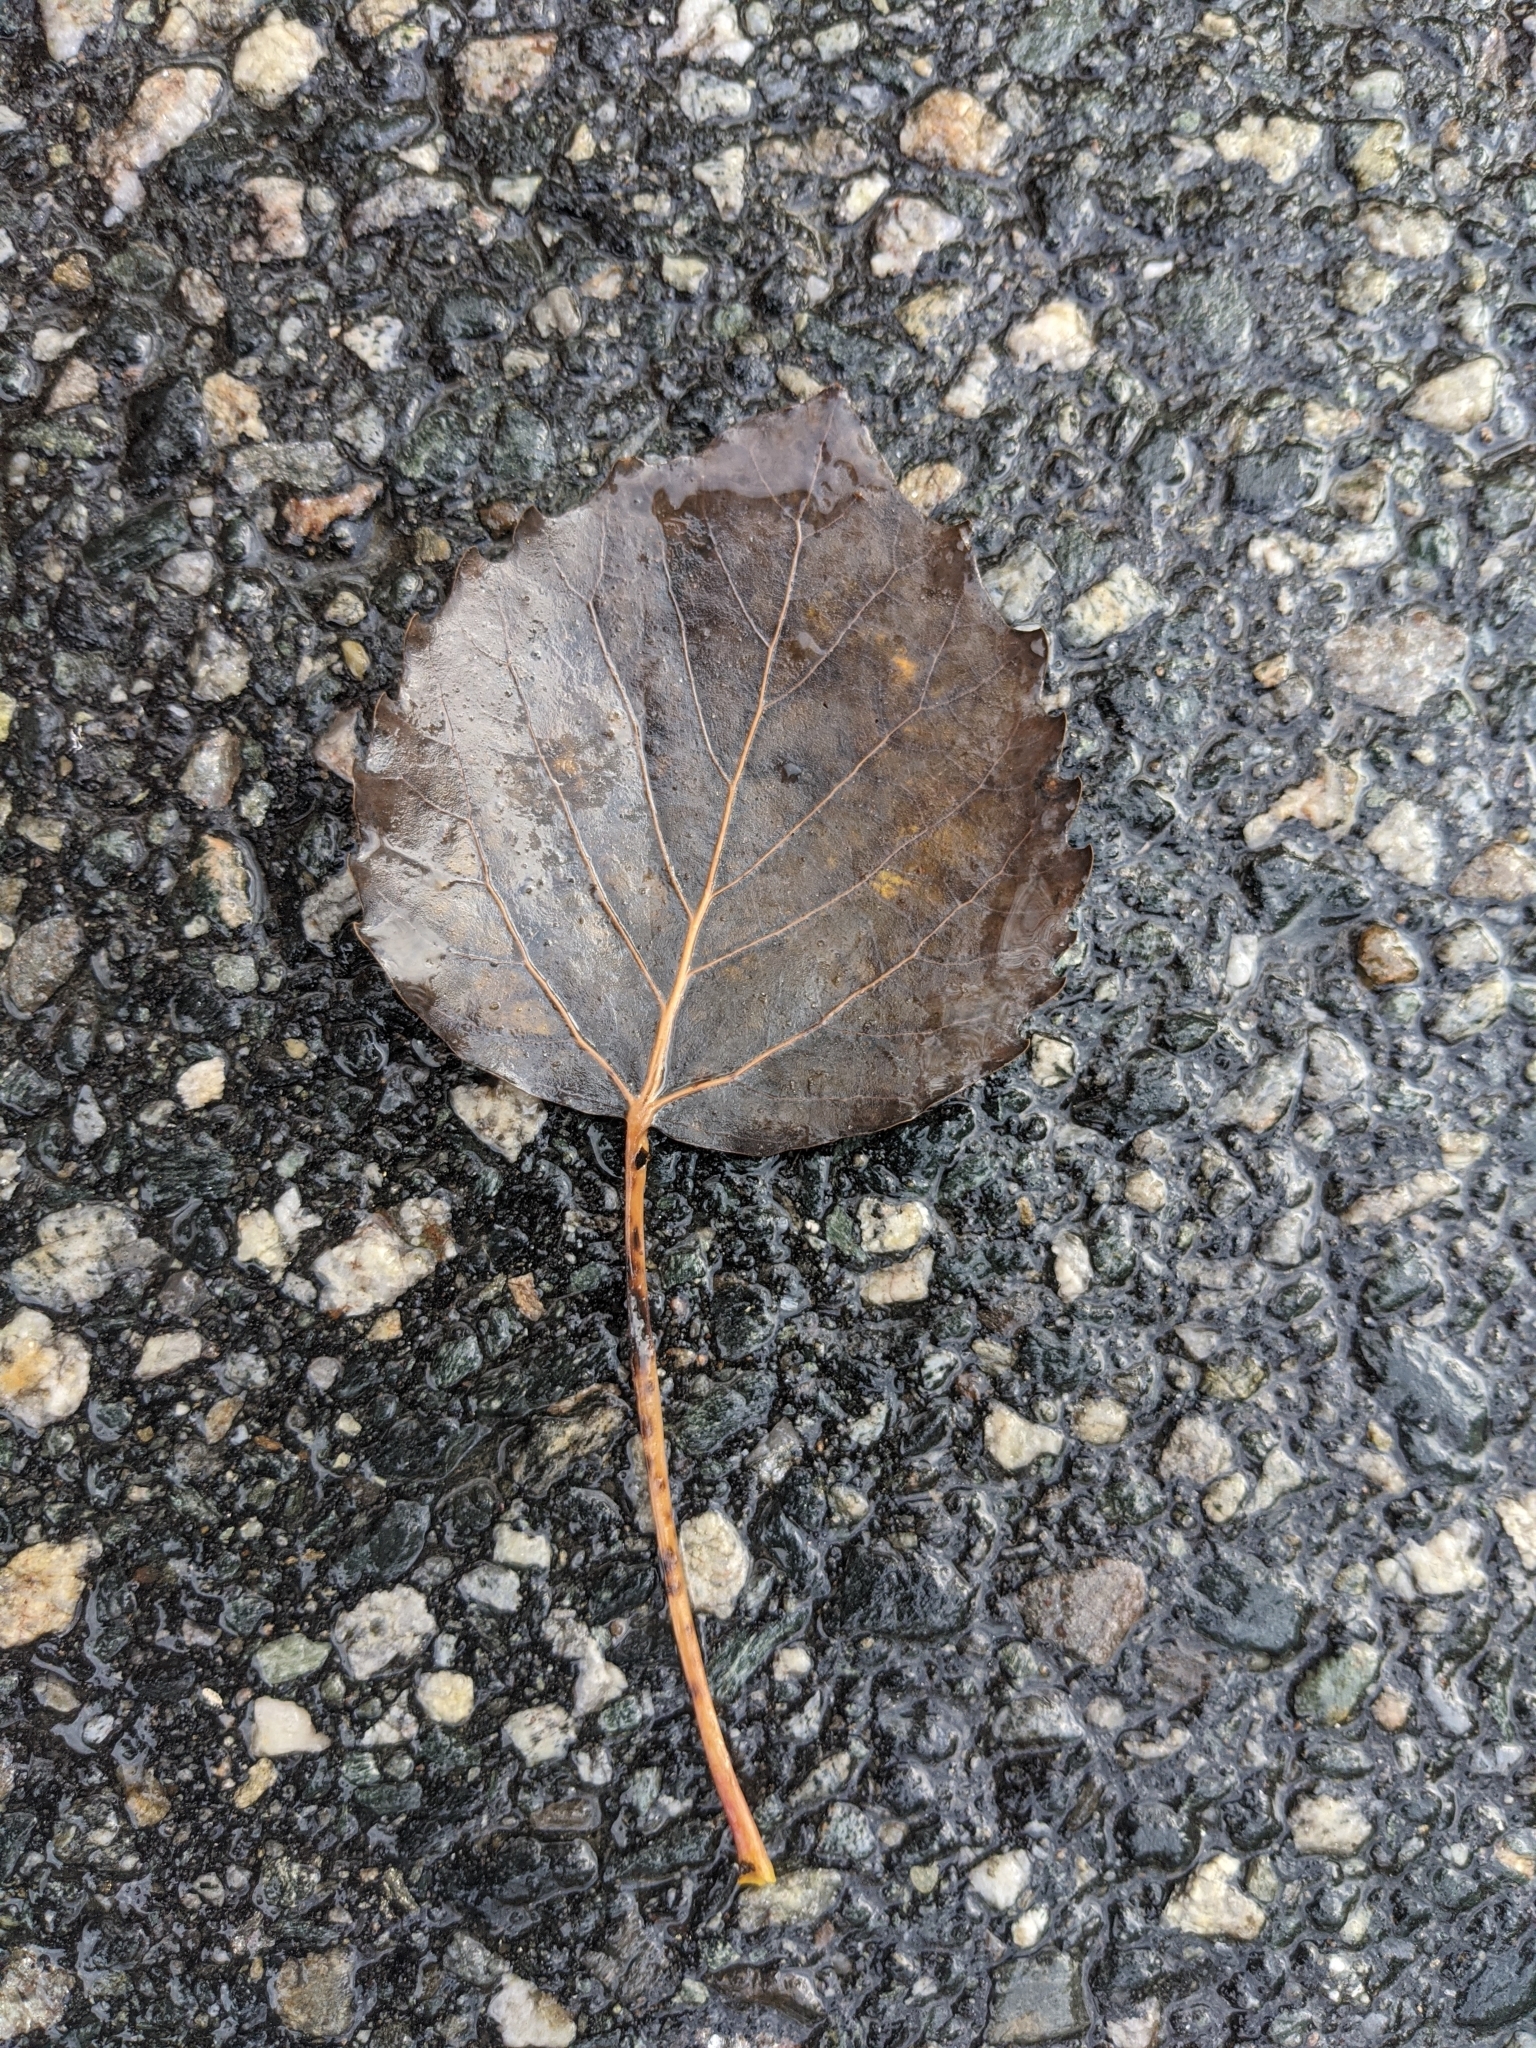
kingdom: Plantae
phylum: Tracheophyta
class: Magnoliopsida
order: Malpighiales
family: Salicaceae
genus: Populus
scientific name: Populus grandidentata
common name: Bigtooth aspen
